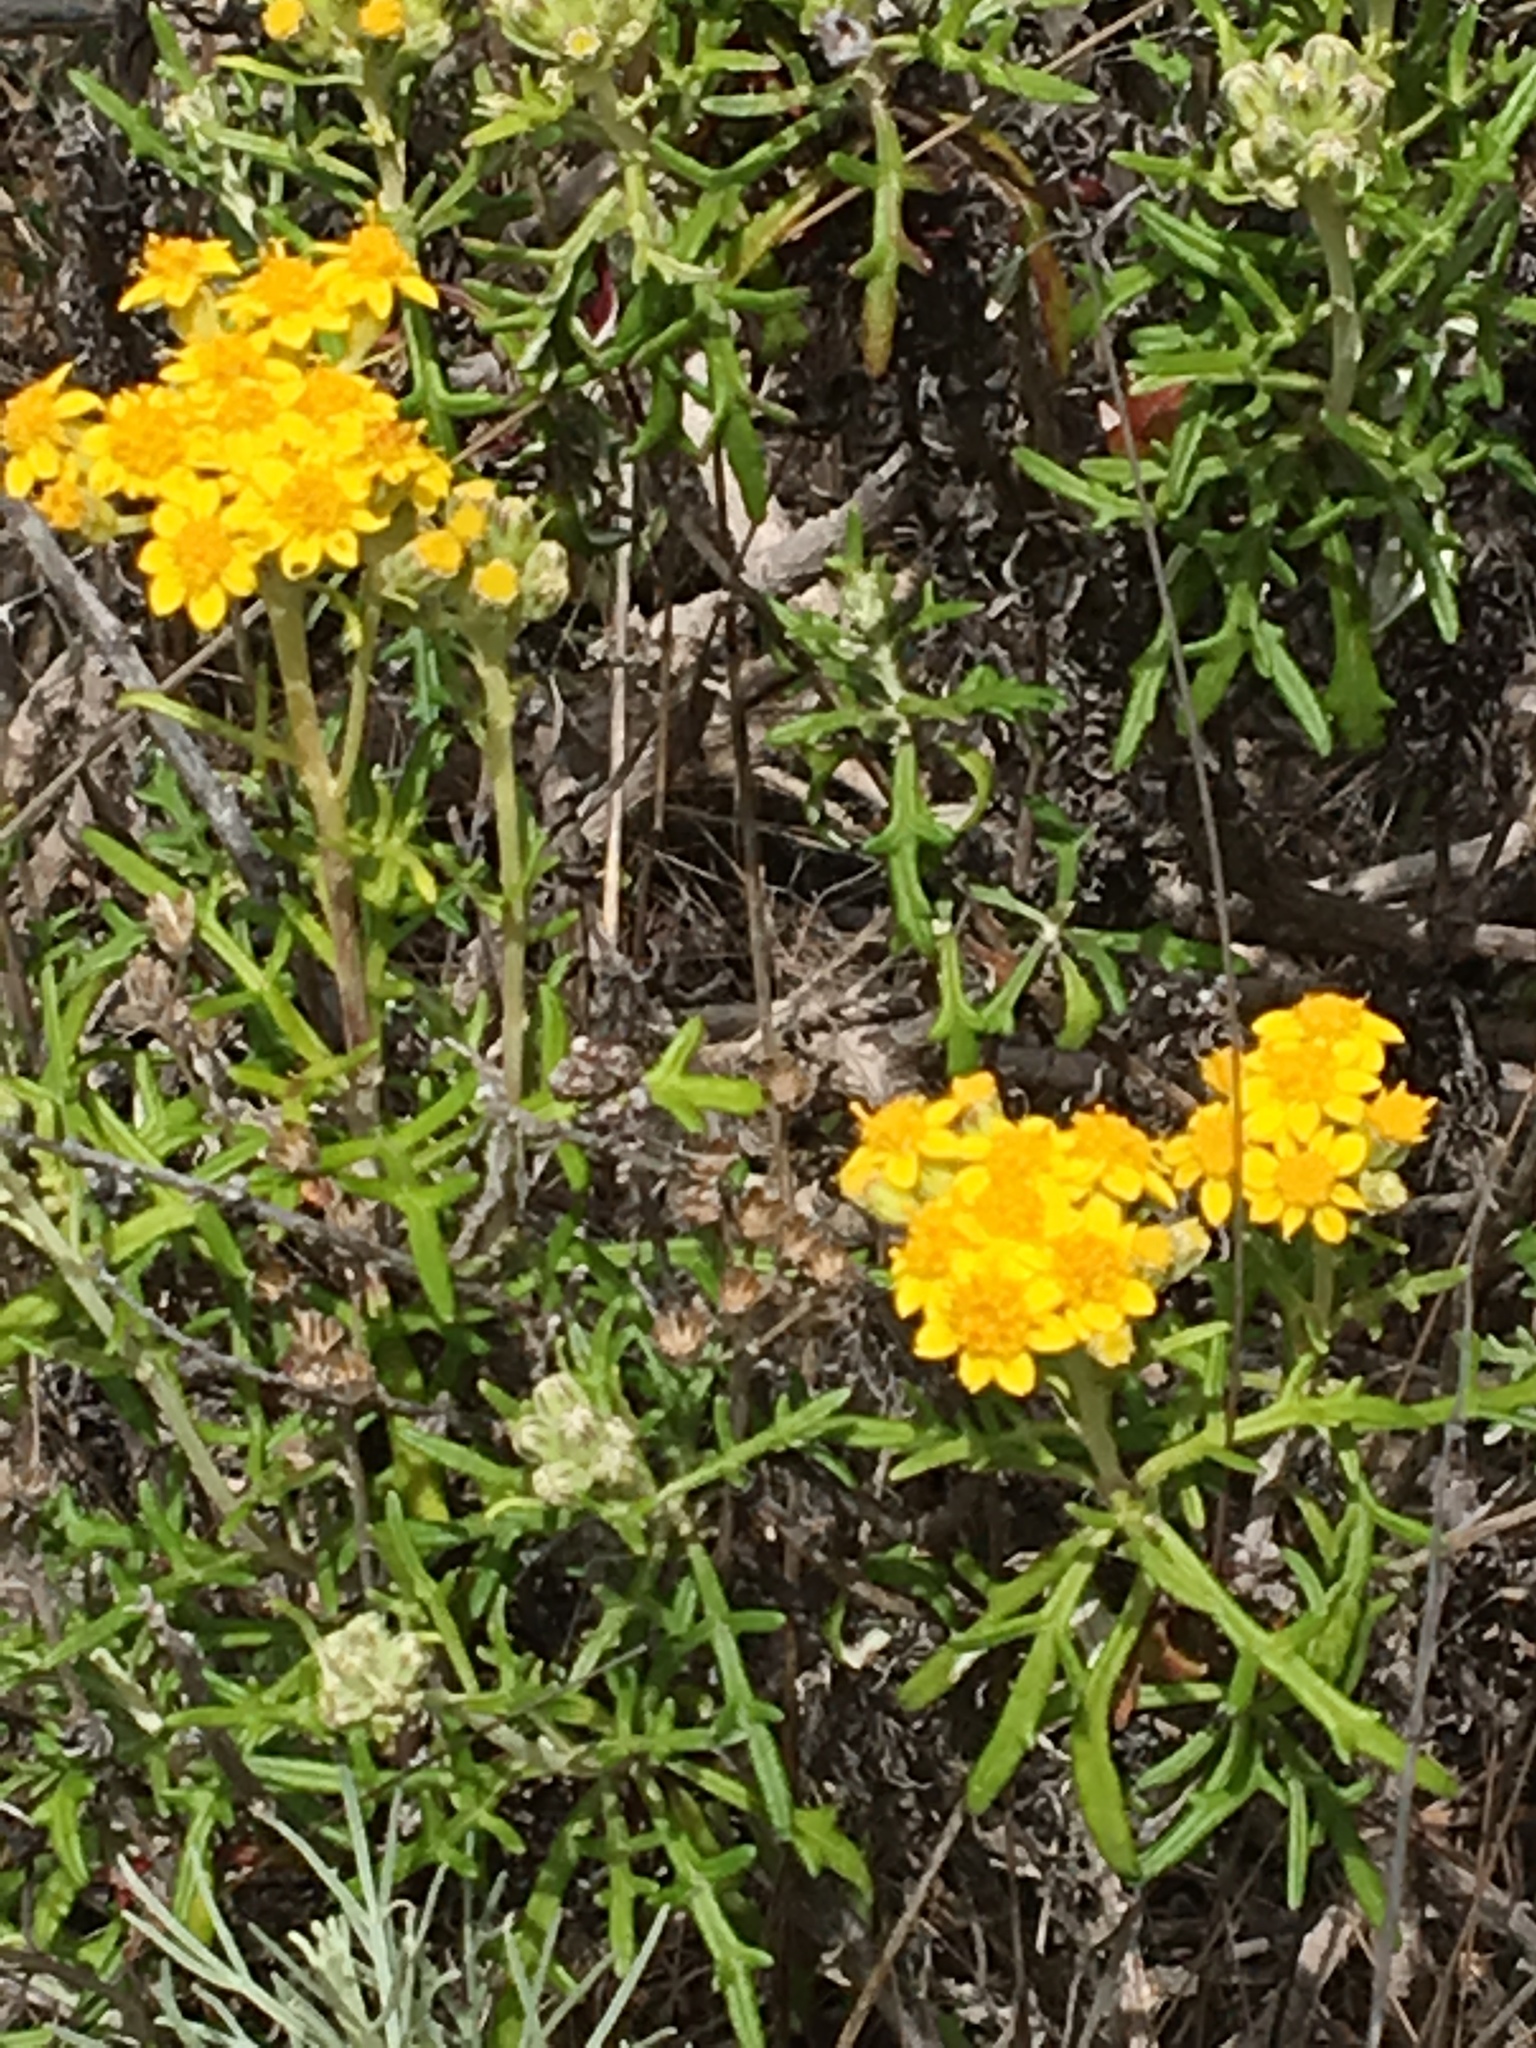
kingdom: Plantae
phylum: Tracheophyta
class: Magnoliopsida
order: Asterales
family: Asteraceae
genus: Eriophyllum
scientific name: Eriophyllum staechadifolium
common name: Lizardtail
